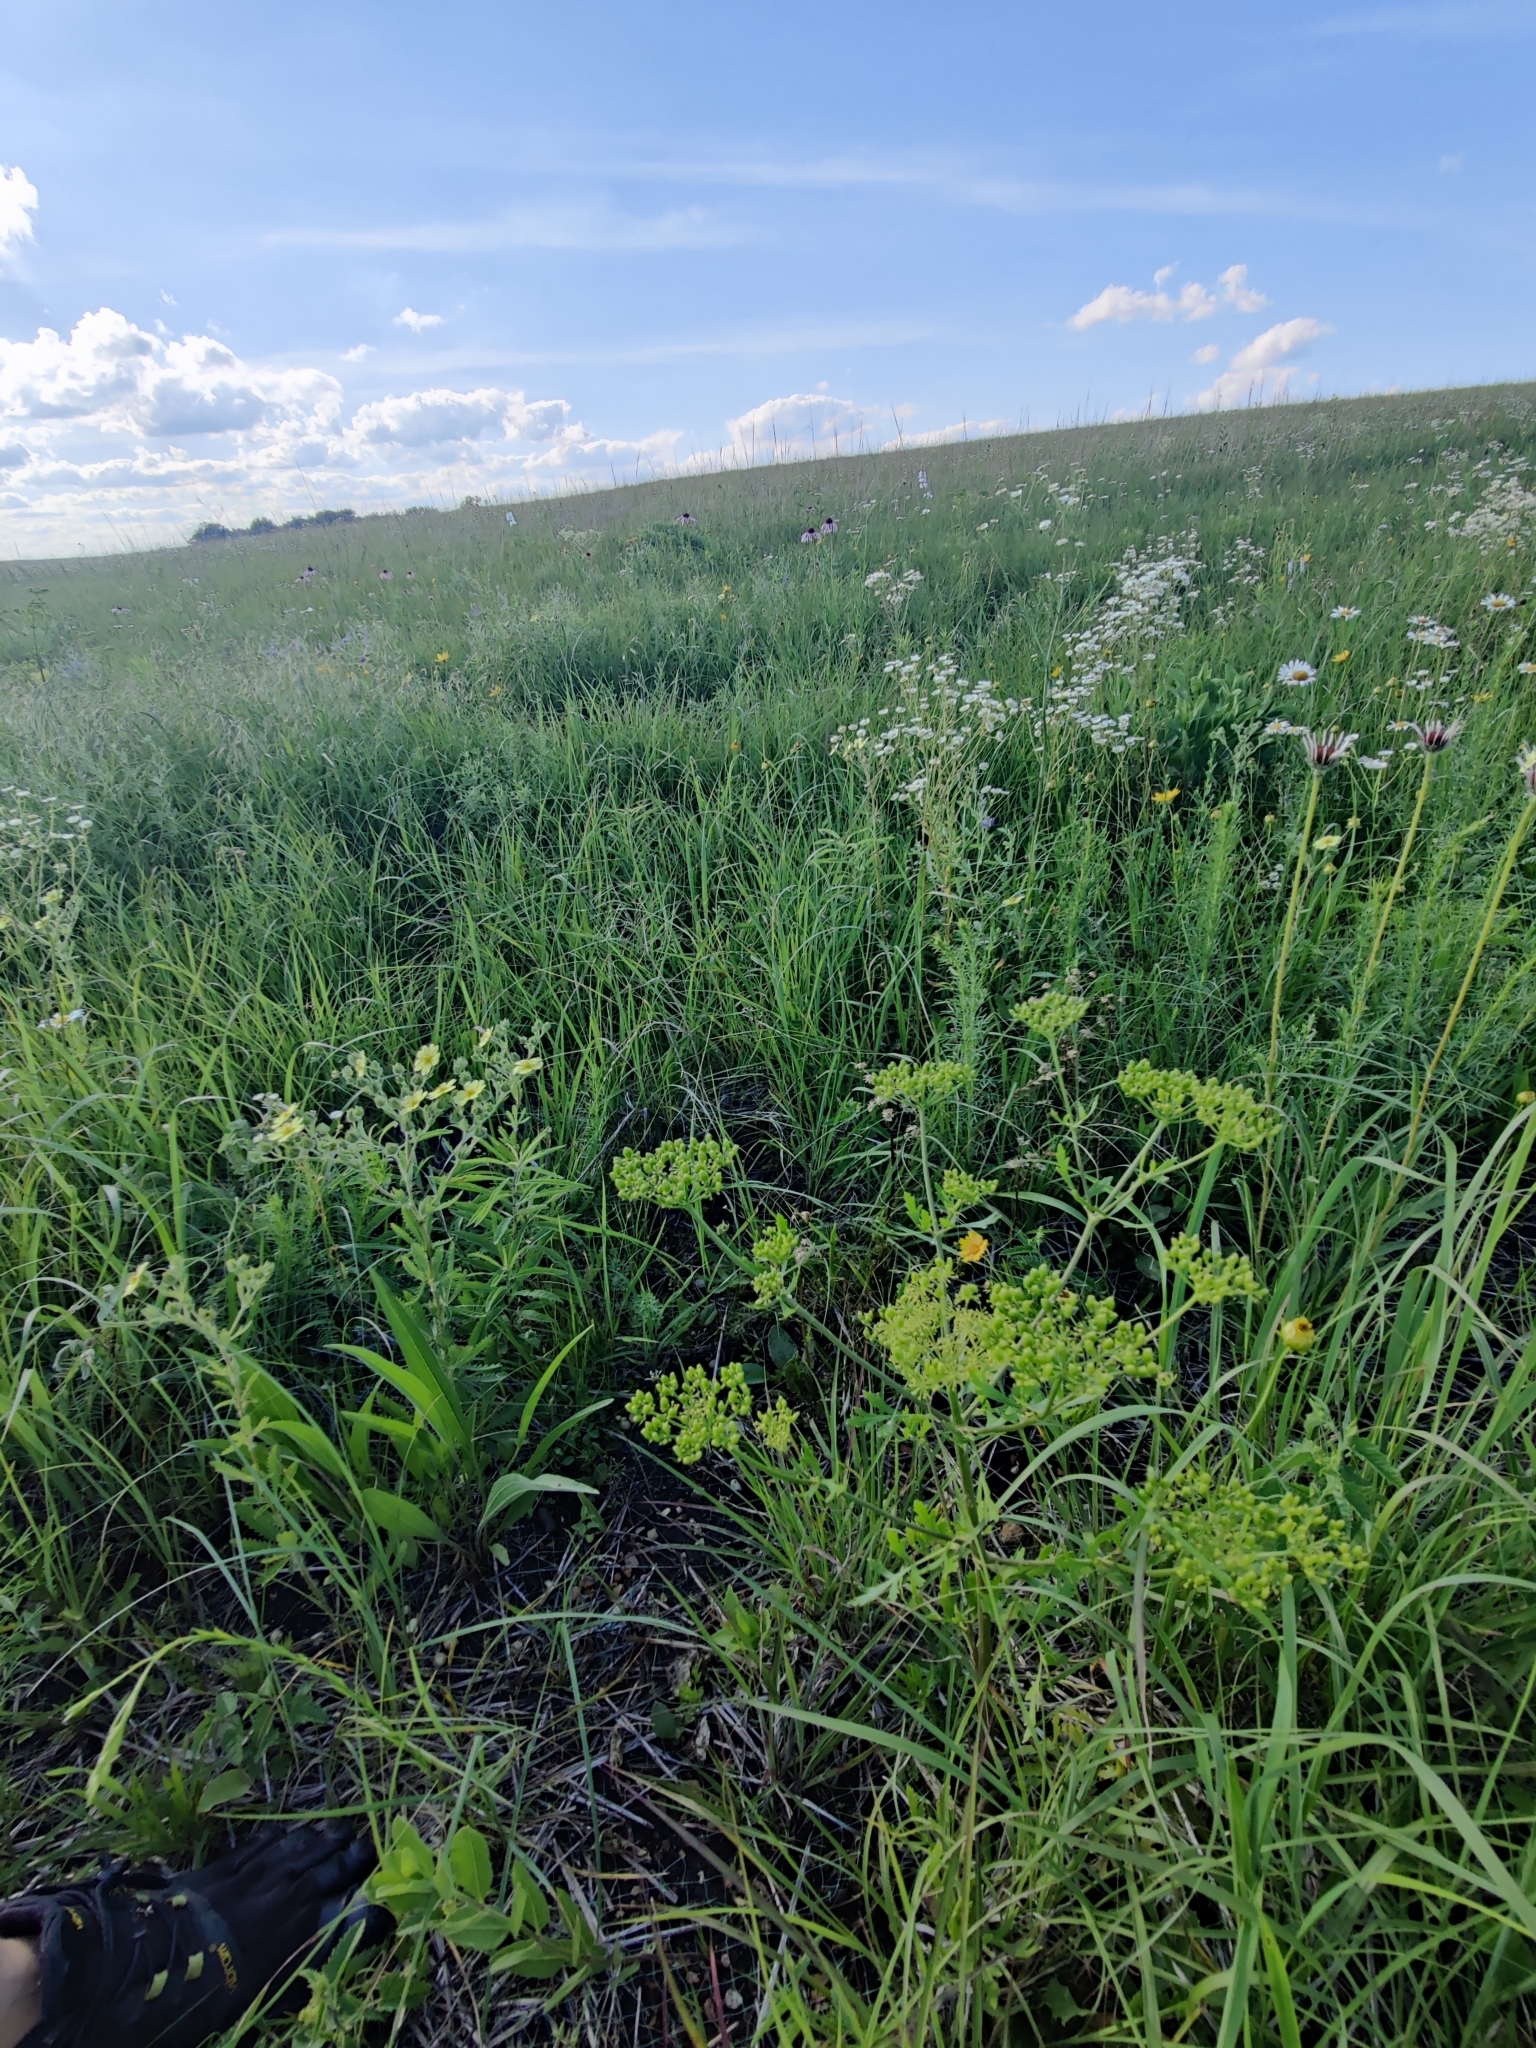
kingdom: Plantae
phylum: Tracheophyta
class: Magnoliopsida
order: Apiales
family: Apiaceae
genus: Polytaenia
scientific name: Polytaenia nuttallii
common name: Prairie-parsley
